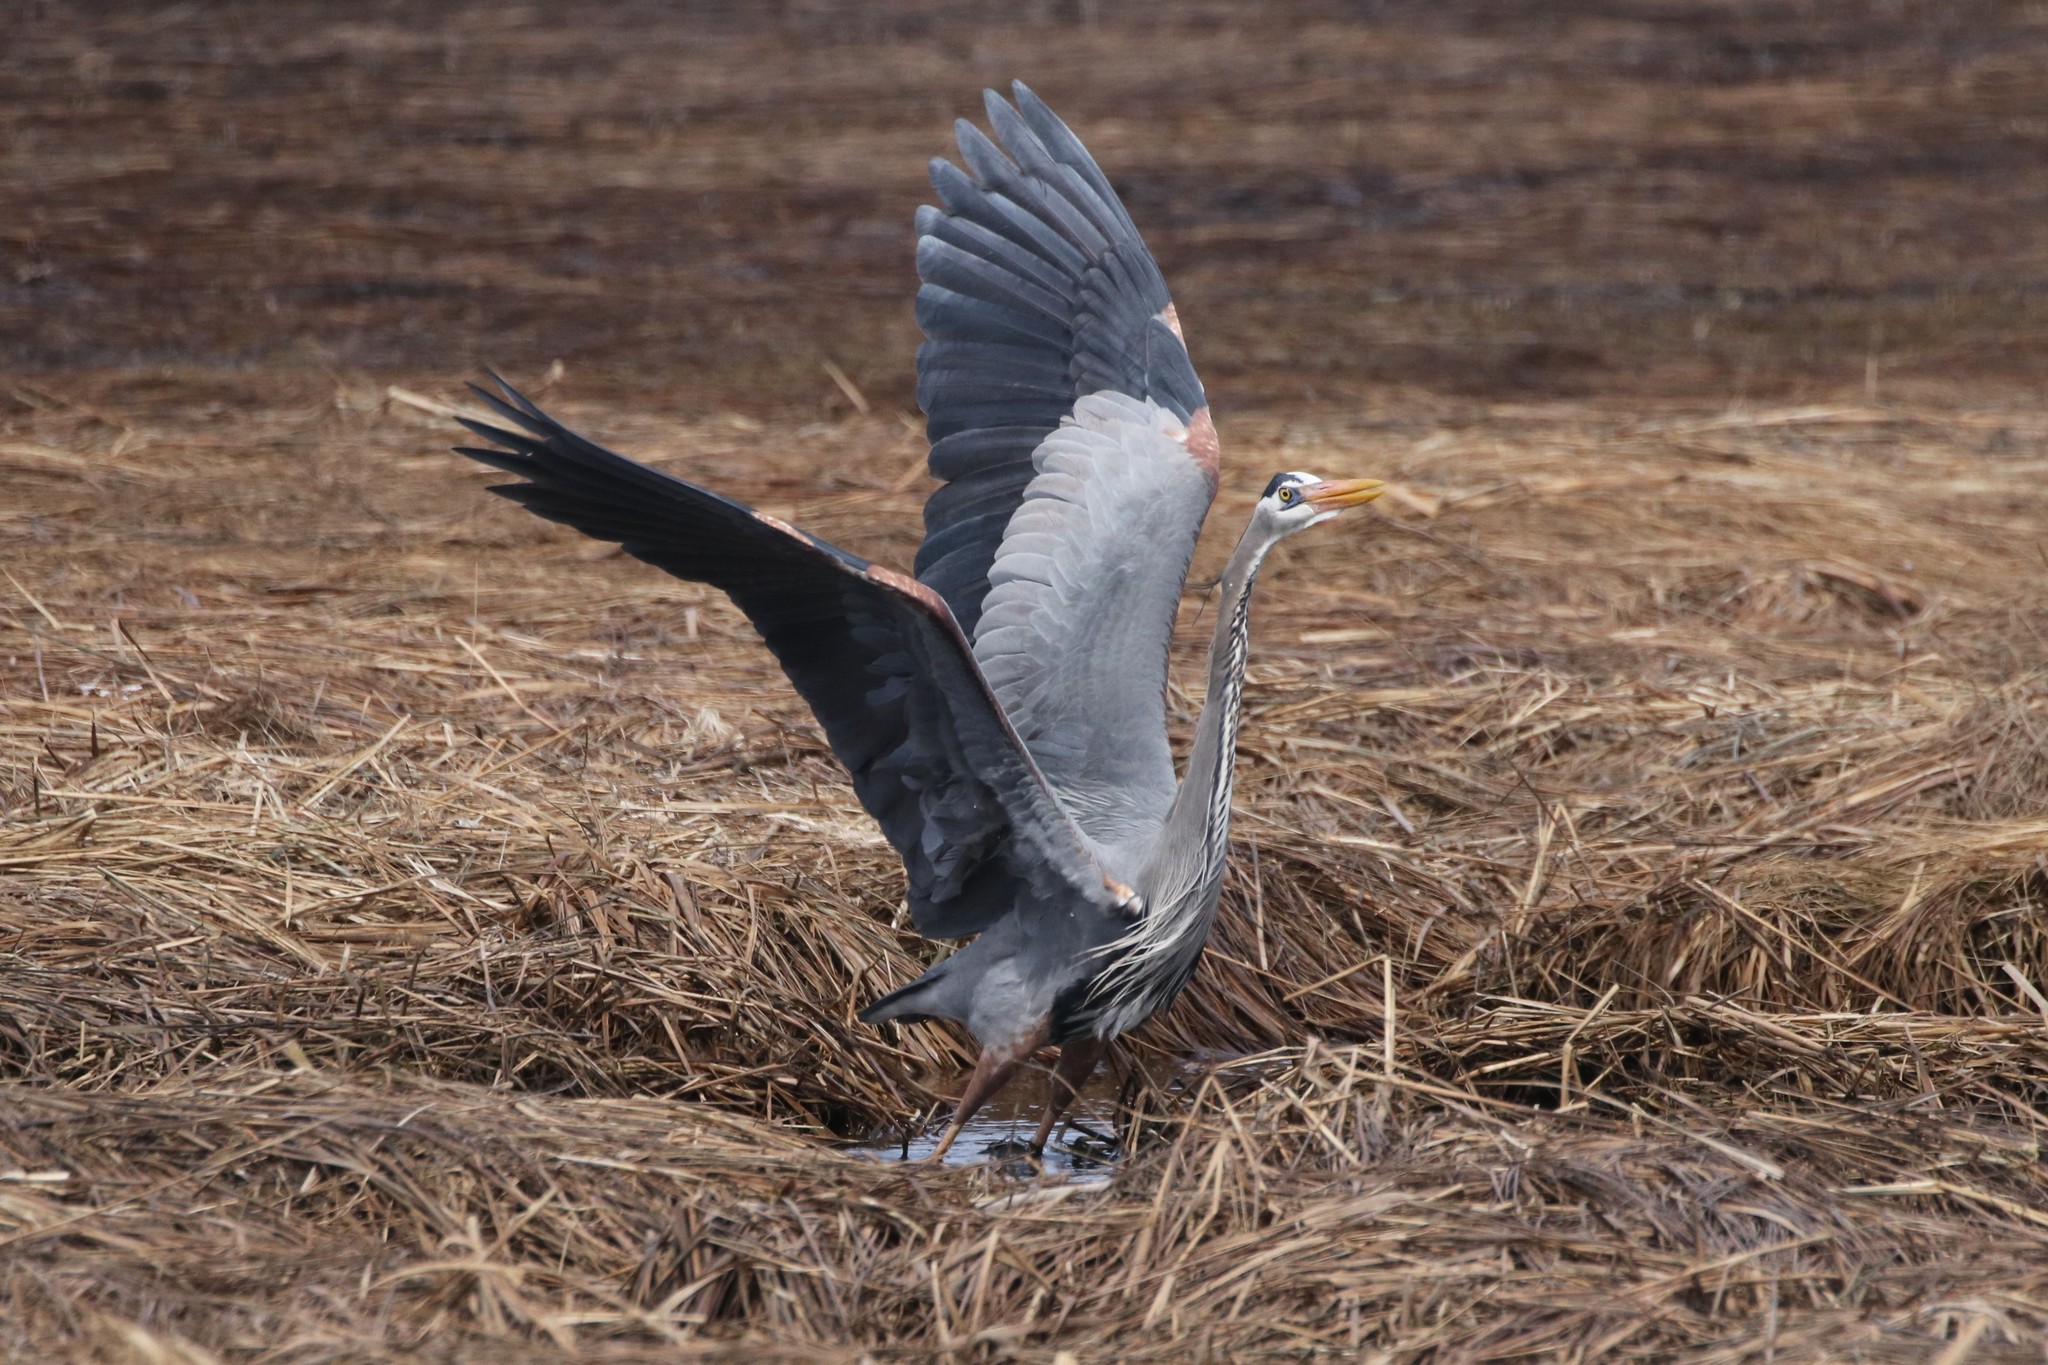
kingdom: Animalia
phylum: Chordata
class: Aves
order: Pelecaniformes
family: Ardeidae
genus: Ardea
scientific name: Ardea herodias
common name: Great blue heron
